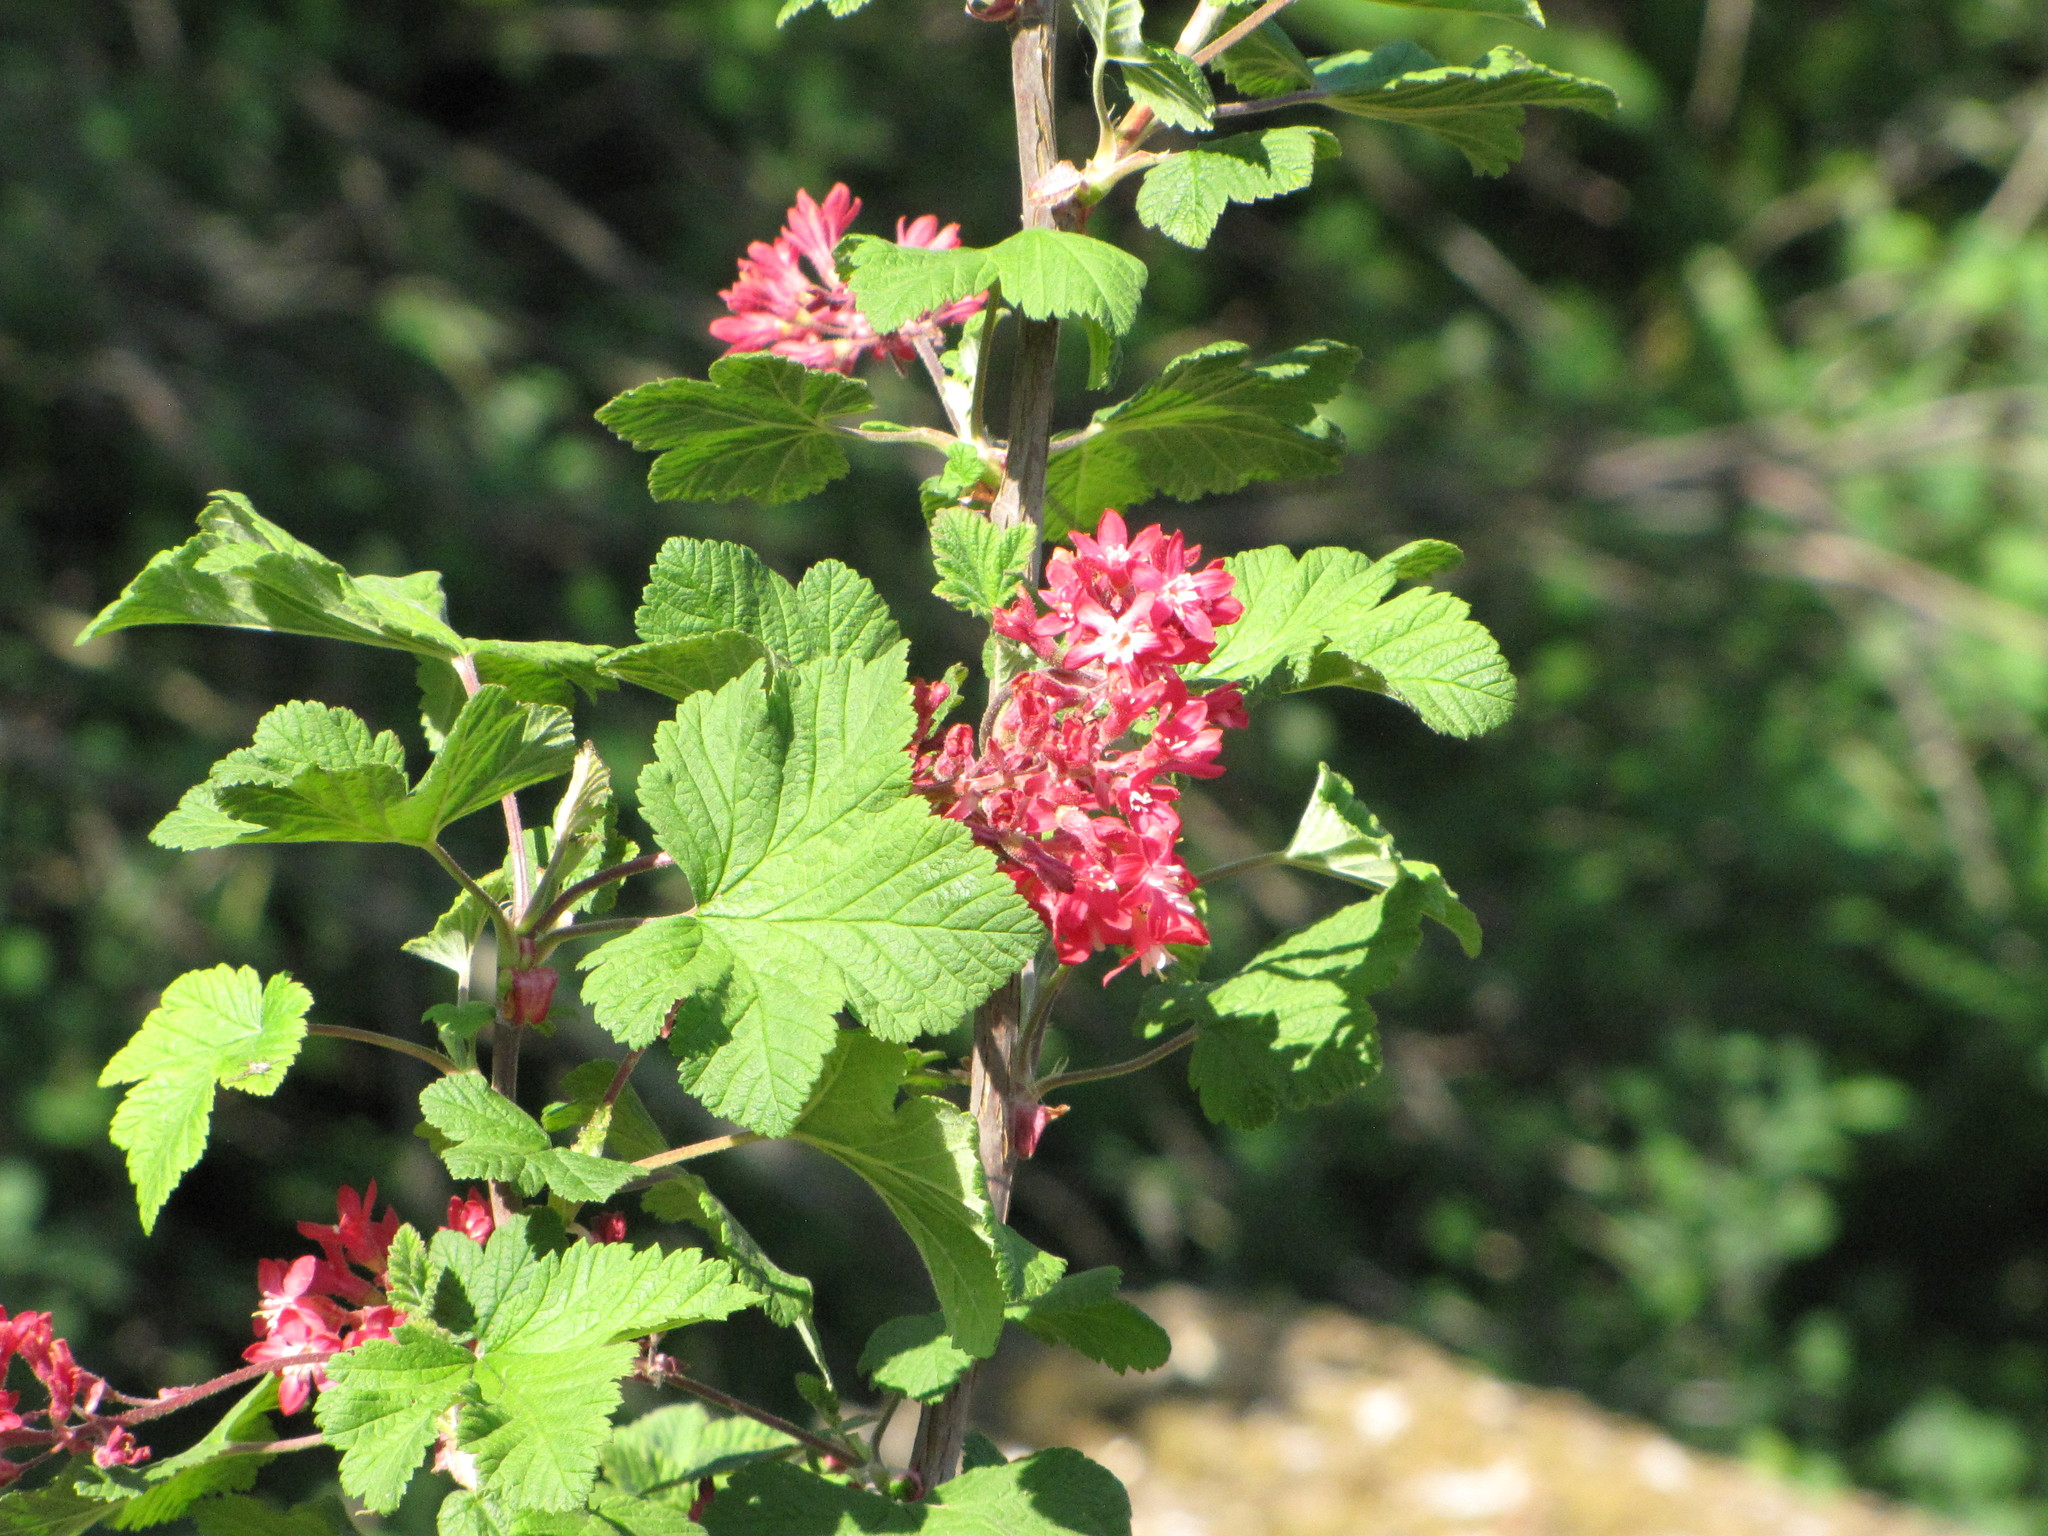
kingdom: Plantae
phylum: Tracheophyta
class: Magnoliopsida
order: Saxifragales
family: Grossulariaceae
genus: Ribes
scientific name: Ribes sanguineum
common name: Flowering currant
